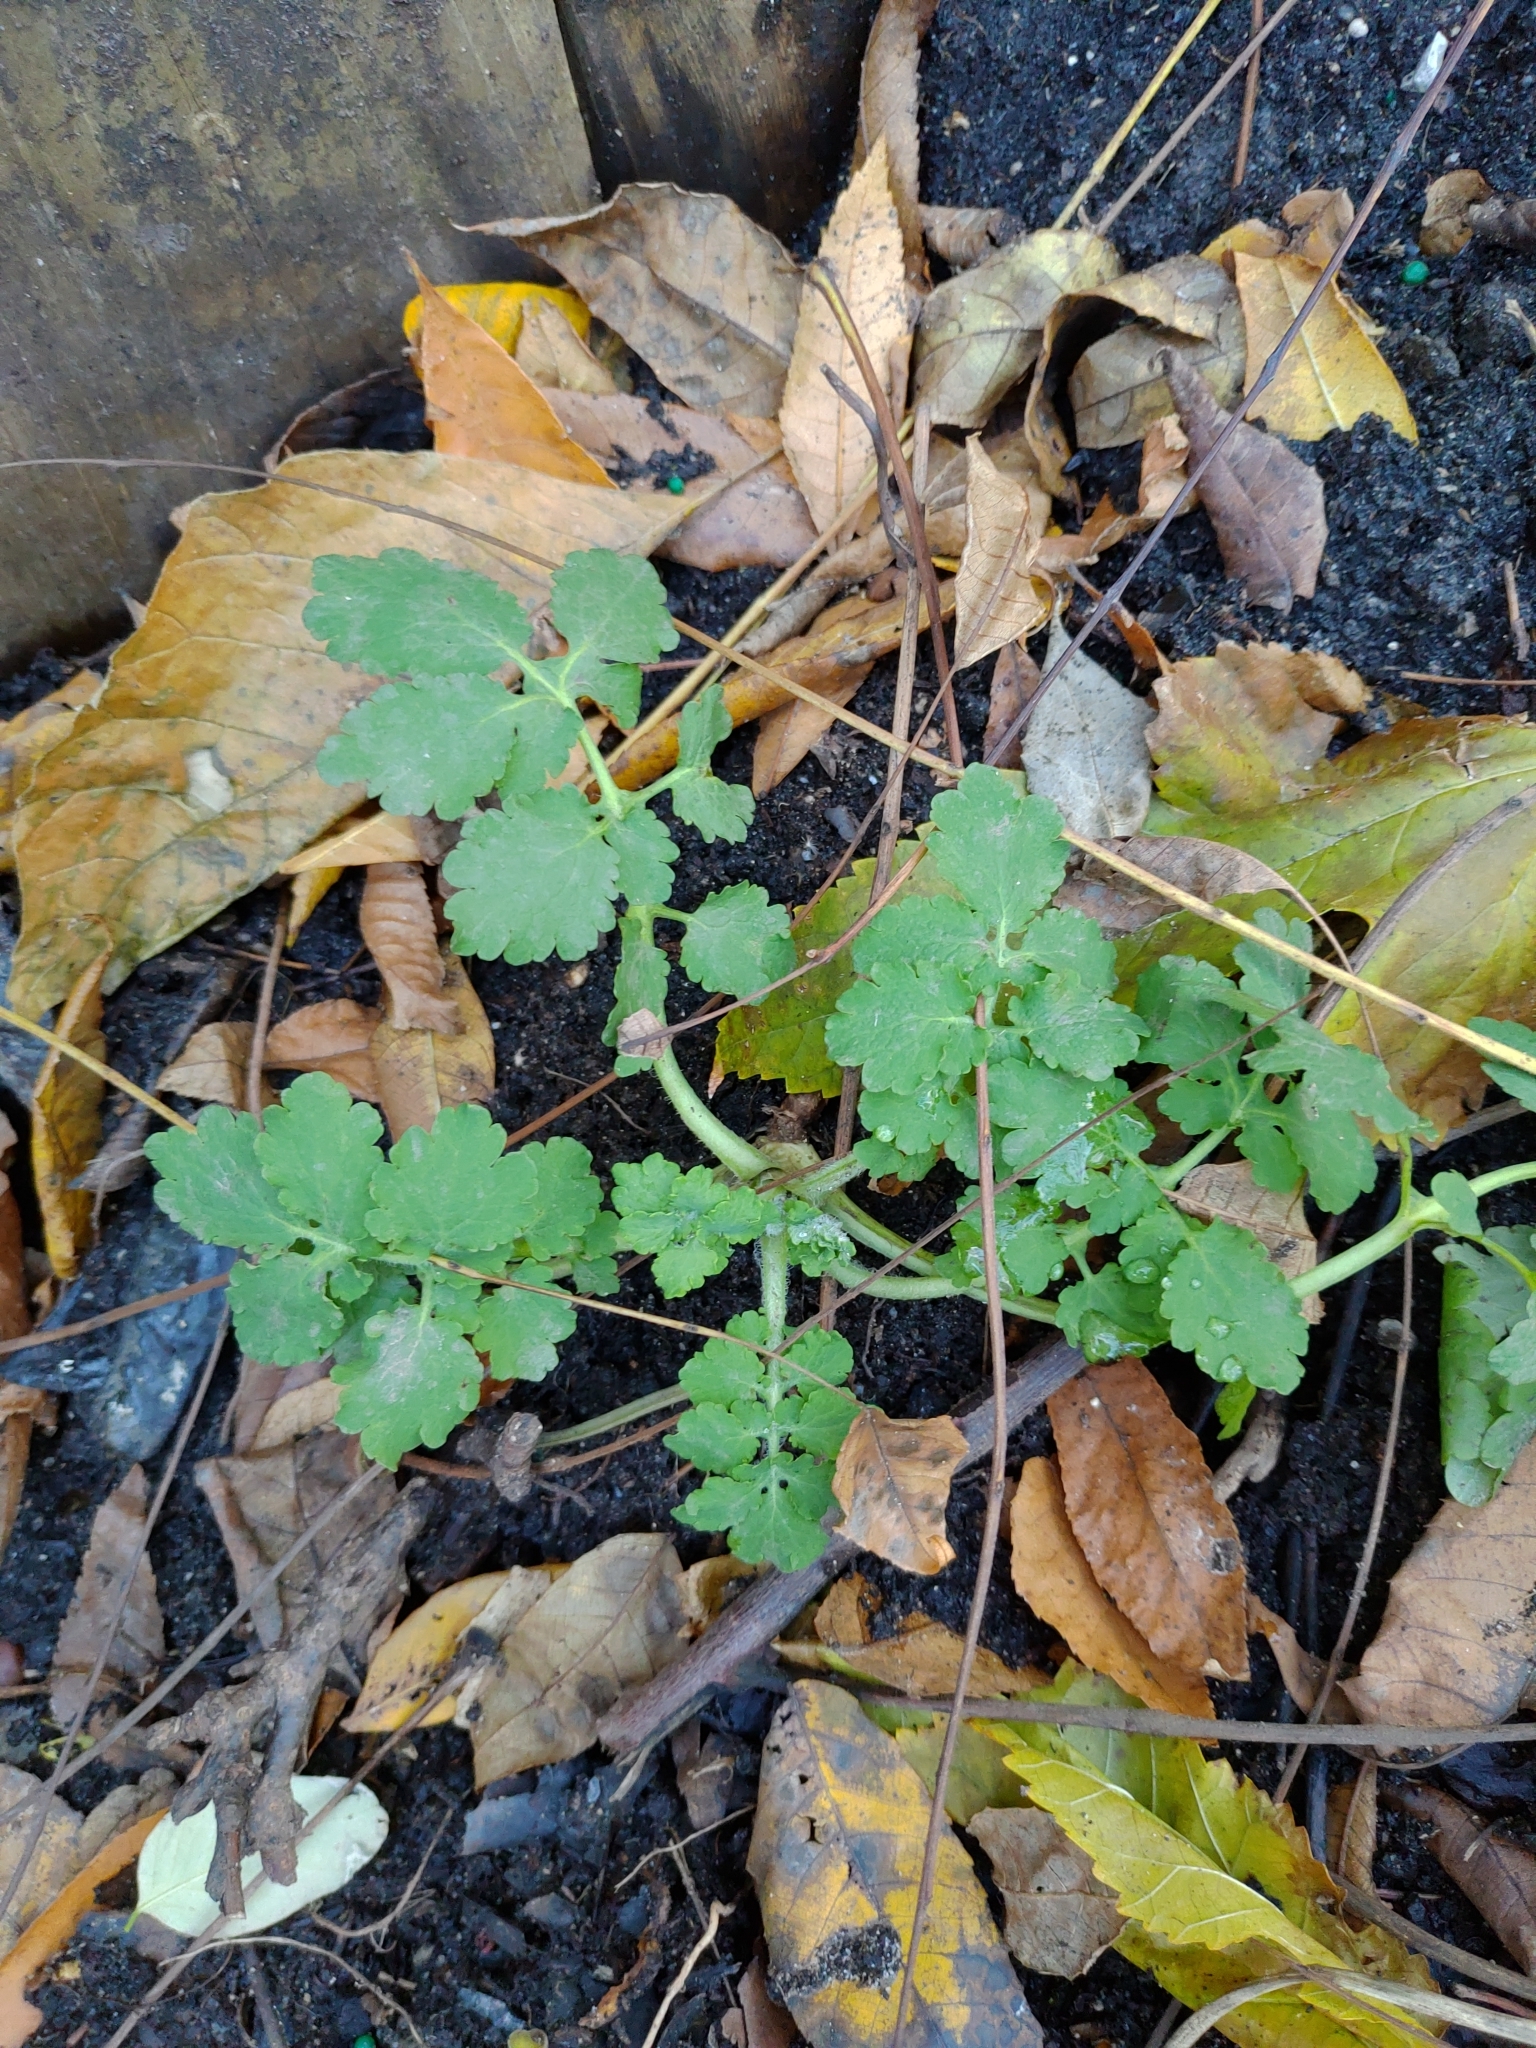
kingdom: Plantae
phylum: Tracheophyta
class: Magnoliopsida
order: Ranunculales
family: Papaveraceae
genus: Chelidonium
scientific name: Chelidonium majus
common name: Greater celandine
